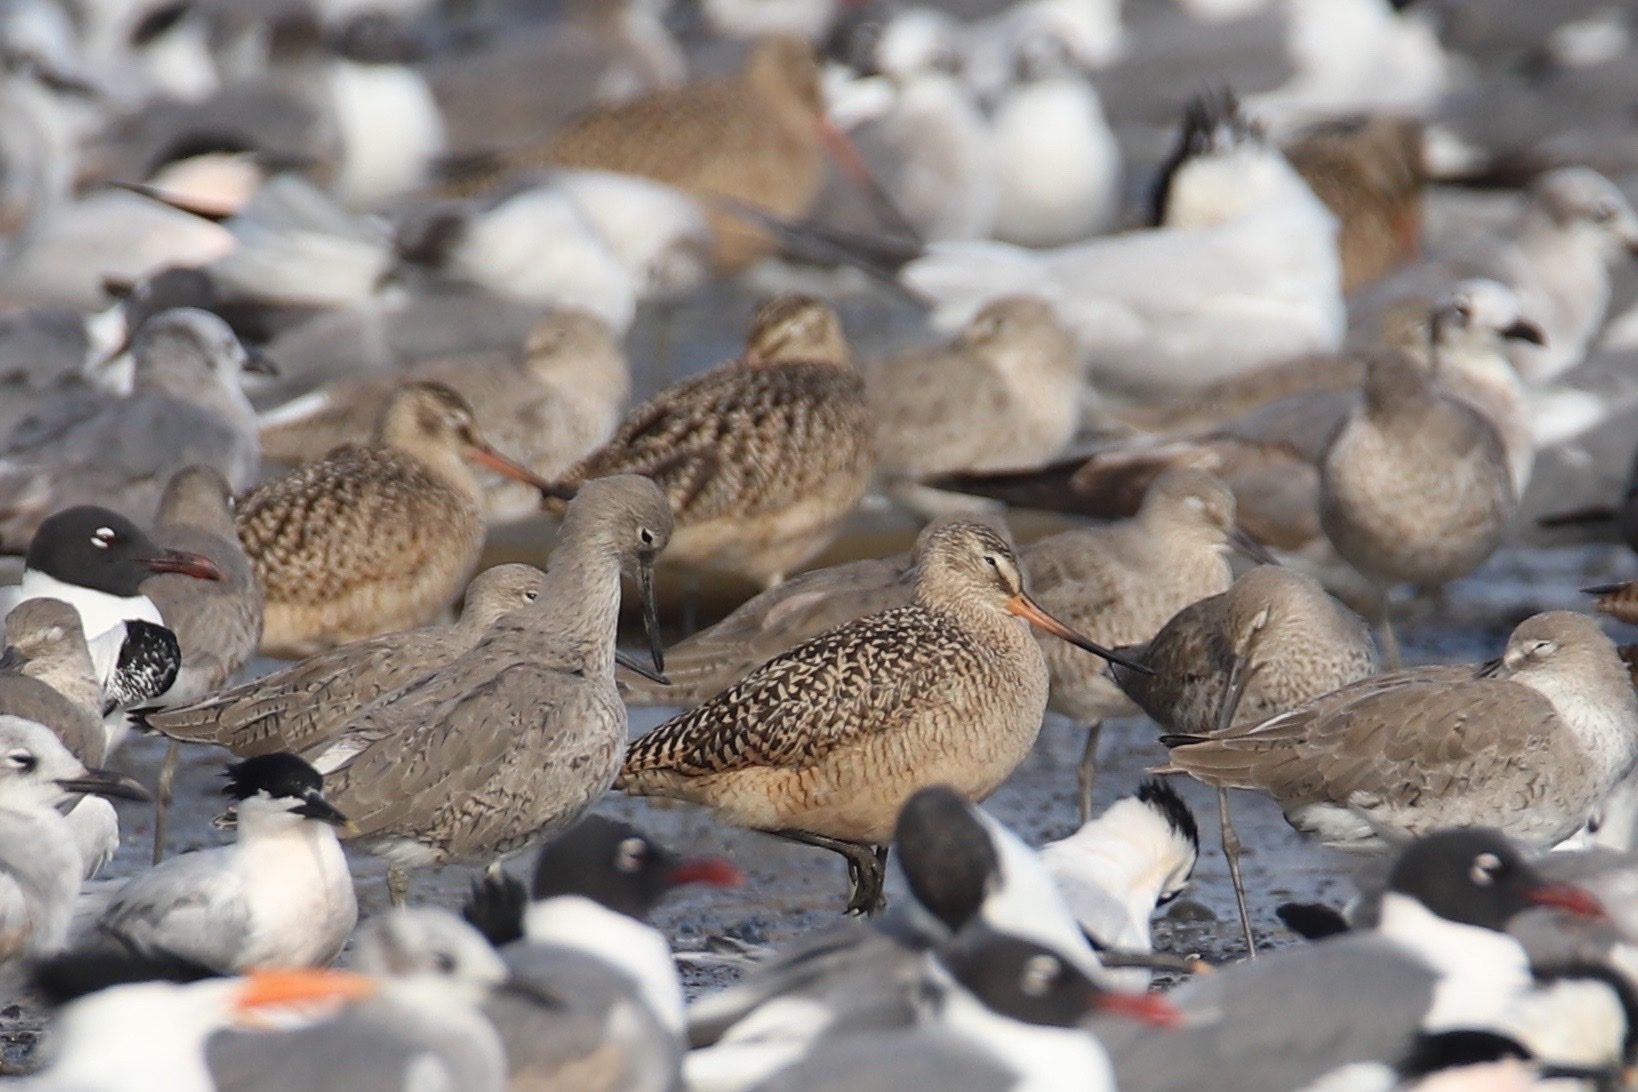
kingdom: Animalia
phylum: Chordata
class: Aves
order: Charadriiformes
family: Scolopacidae
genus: Limosa
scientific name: Limosa fedoa
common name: Marbled godwit
